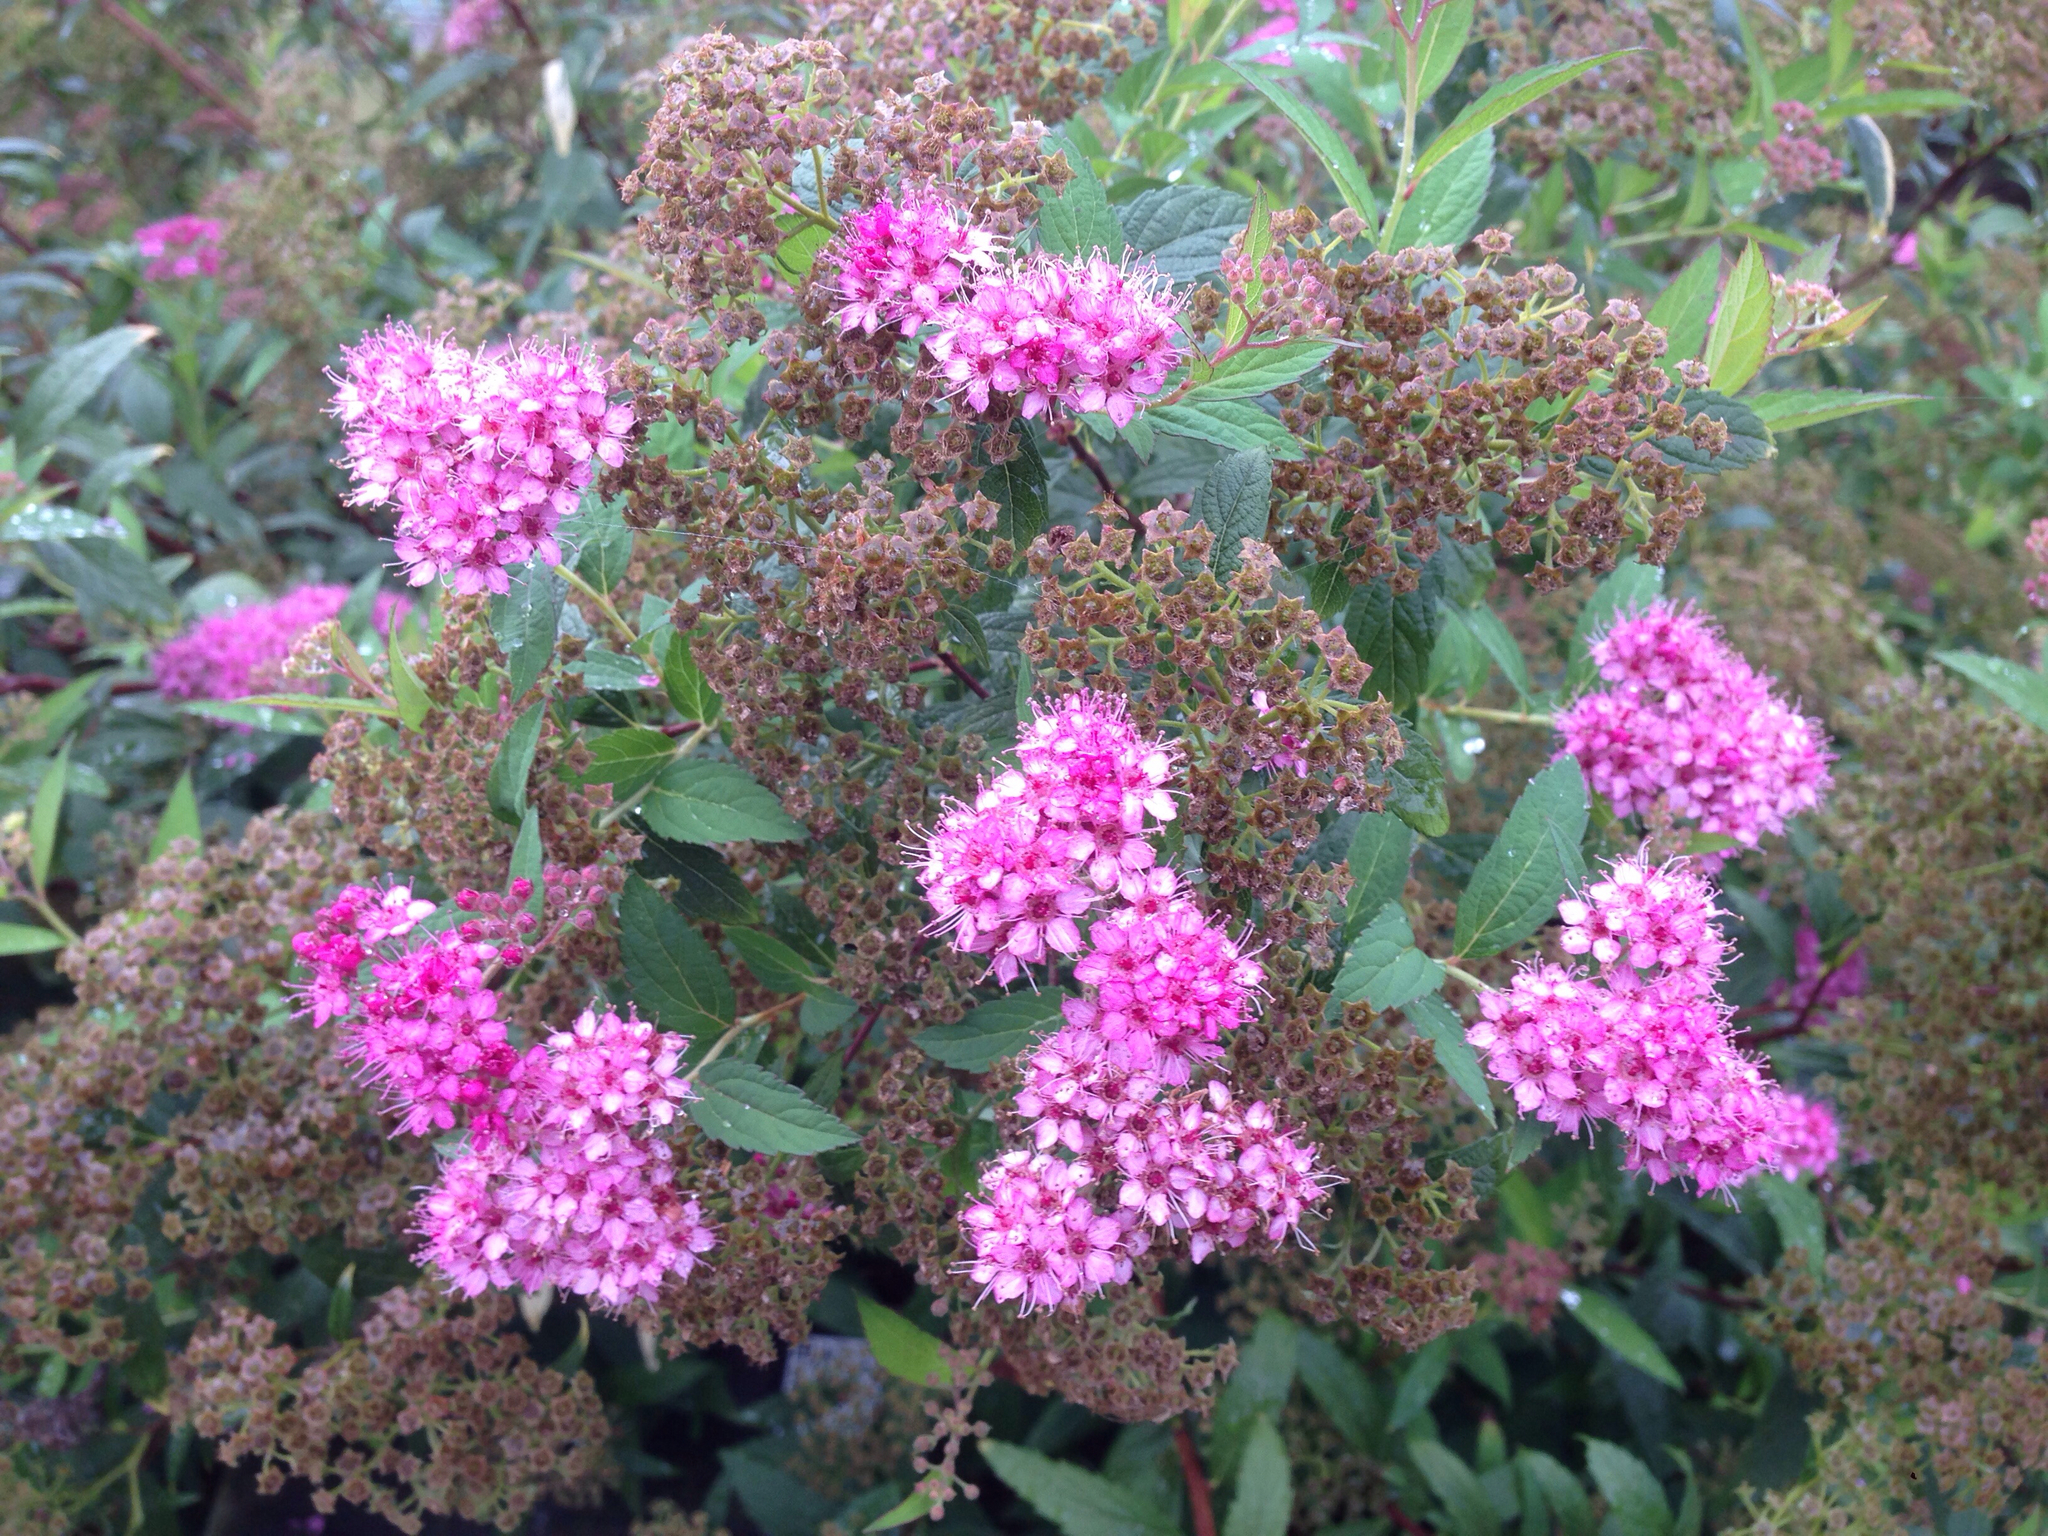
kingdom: Plantae
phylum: Tracheophyta
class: Magnoliopsida
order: Rosales
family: Rosaceae
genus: Spiraea
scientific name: Spiraea japonica
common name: Japanese spiraea
